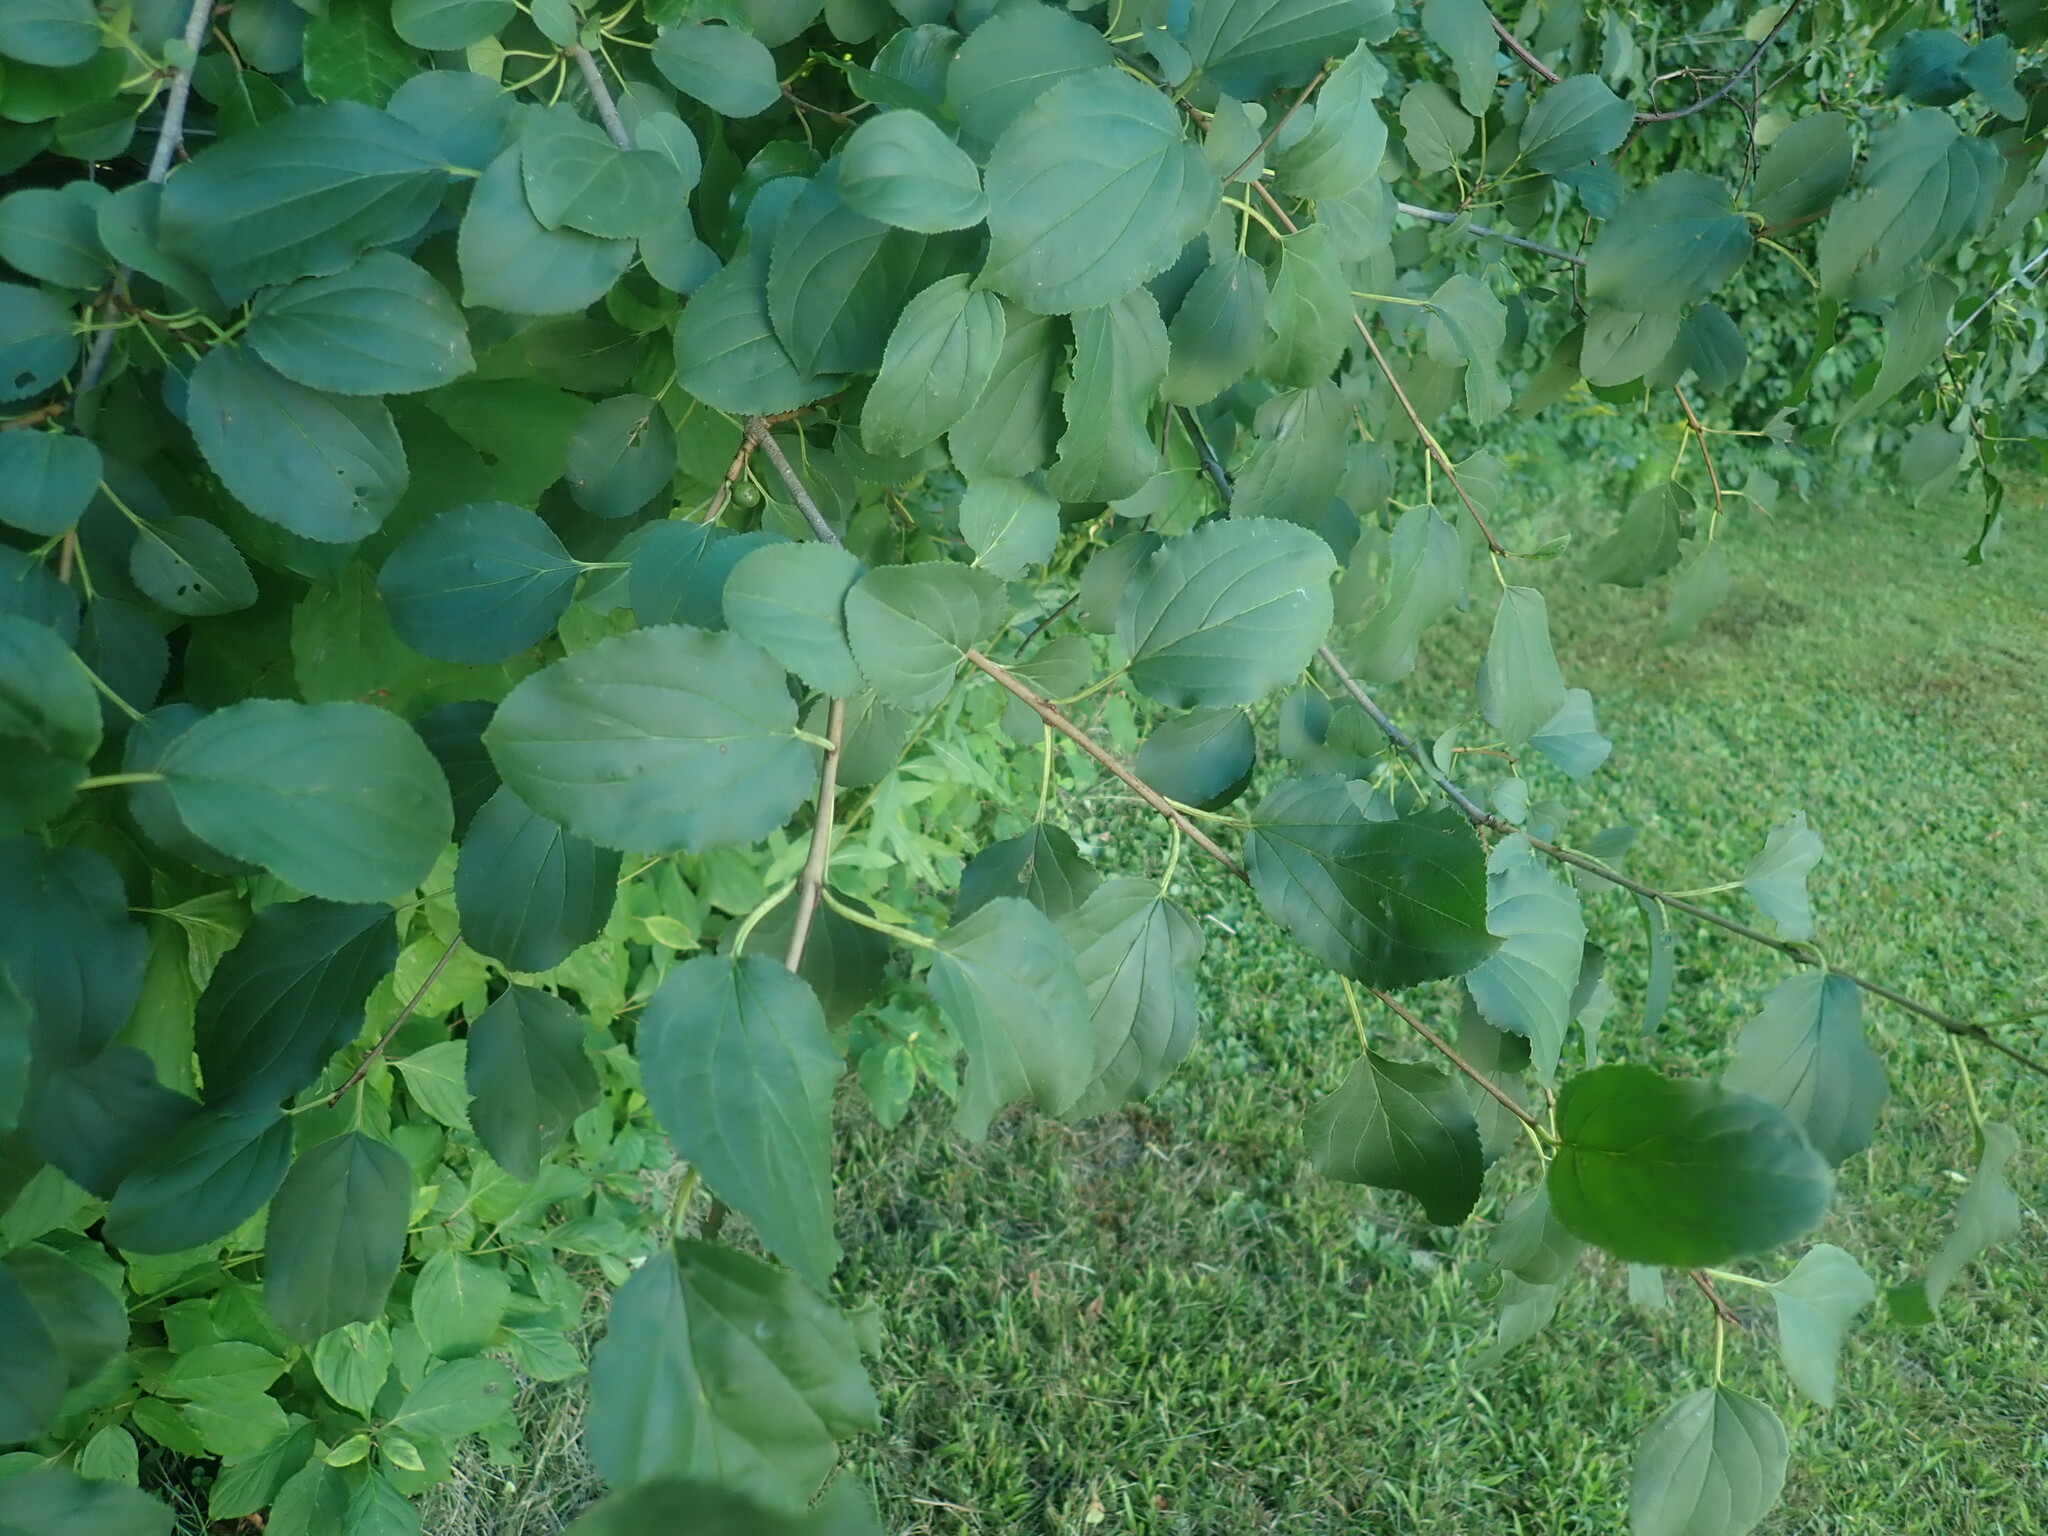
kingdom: Plantae
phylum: Tracheophyta
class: Magnoliopsida
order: Rosales
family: Rhamnaceae
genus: Rhamnus
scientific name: Rhamnus cathartica
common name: Common buckthorn
